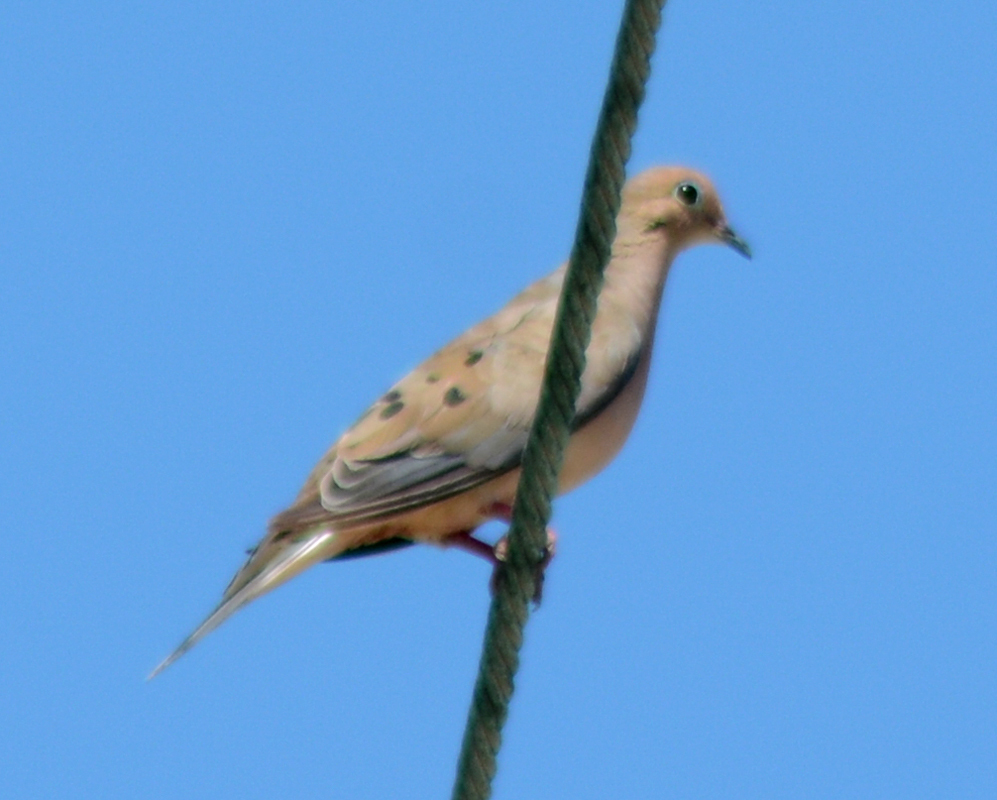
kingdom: Animalia
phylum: Chordata
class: Aves
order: Columbiformes
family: Columbidae
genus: Zenaida
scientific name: Zenaida macroura
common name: Mourning dove
